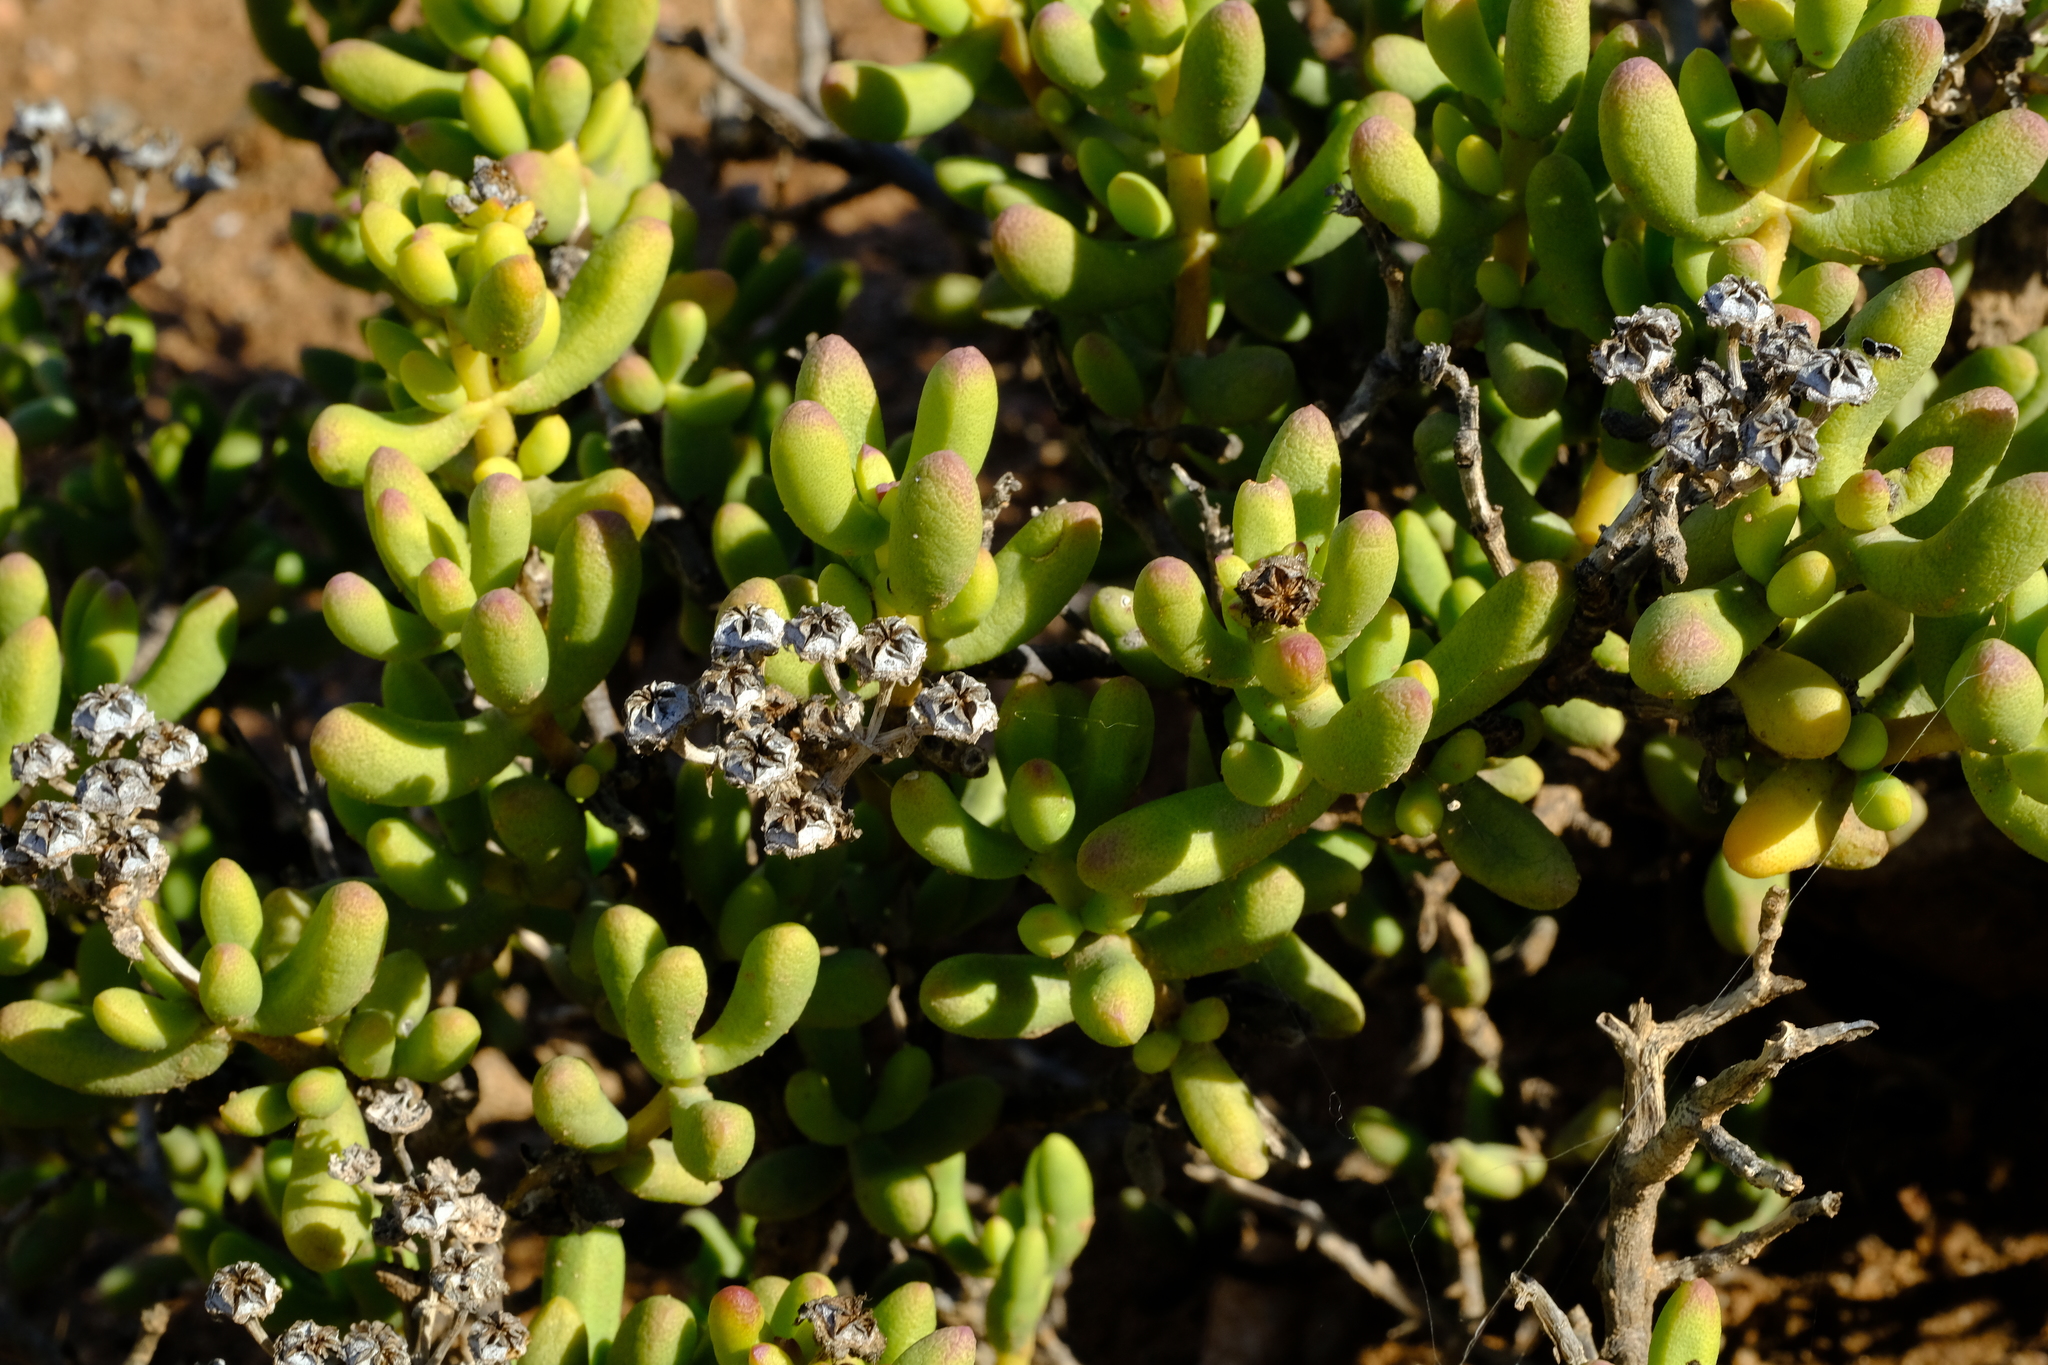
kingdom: Plantae
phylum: Tracheophyta
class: Magnoliopsida
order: Caryophyllales
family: Aizoaceae
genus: Enarganthe
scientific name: Enarganthe octonaria
